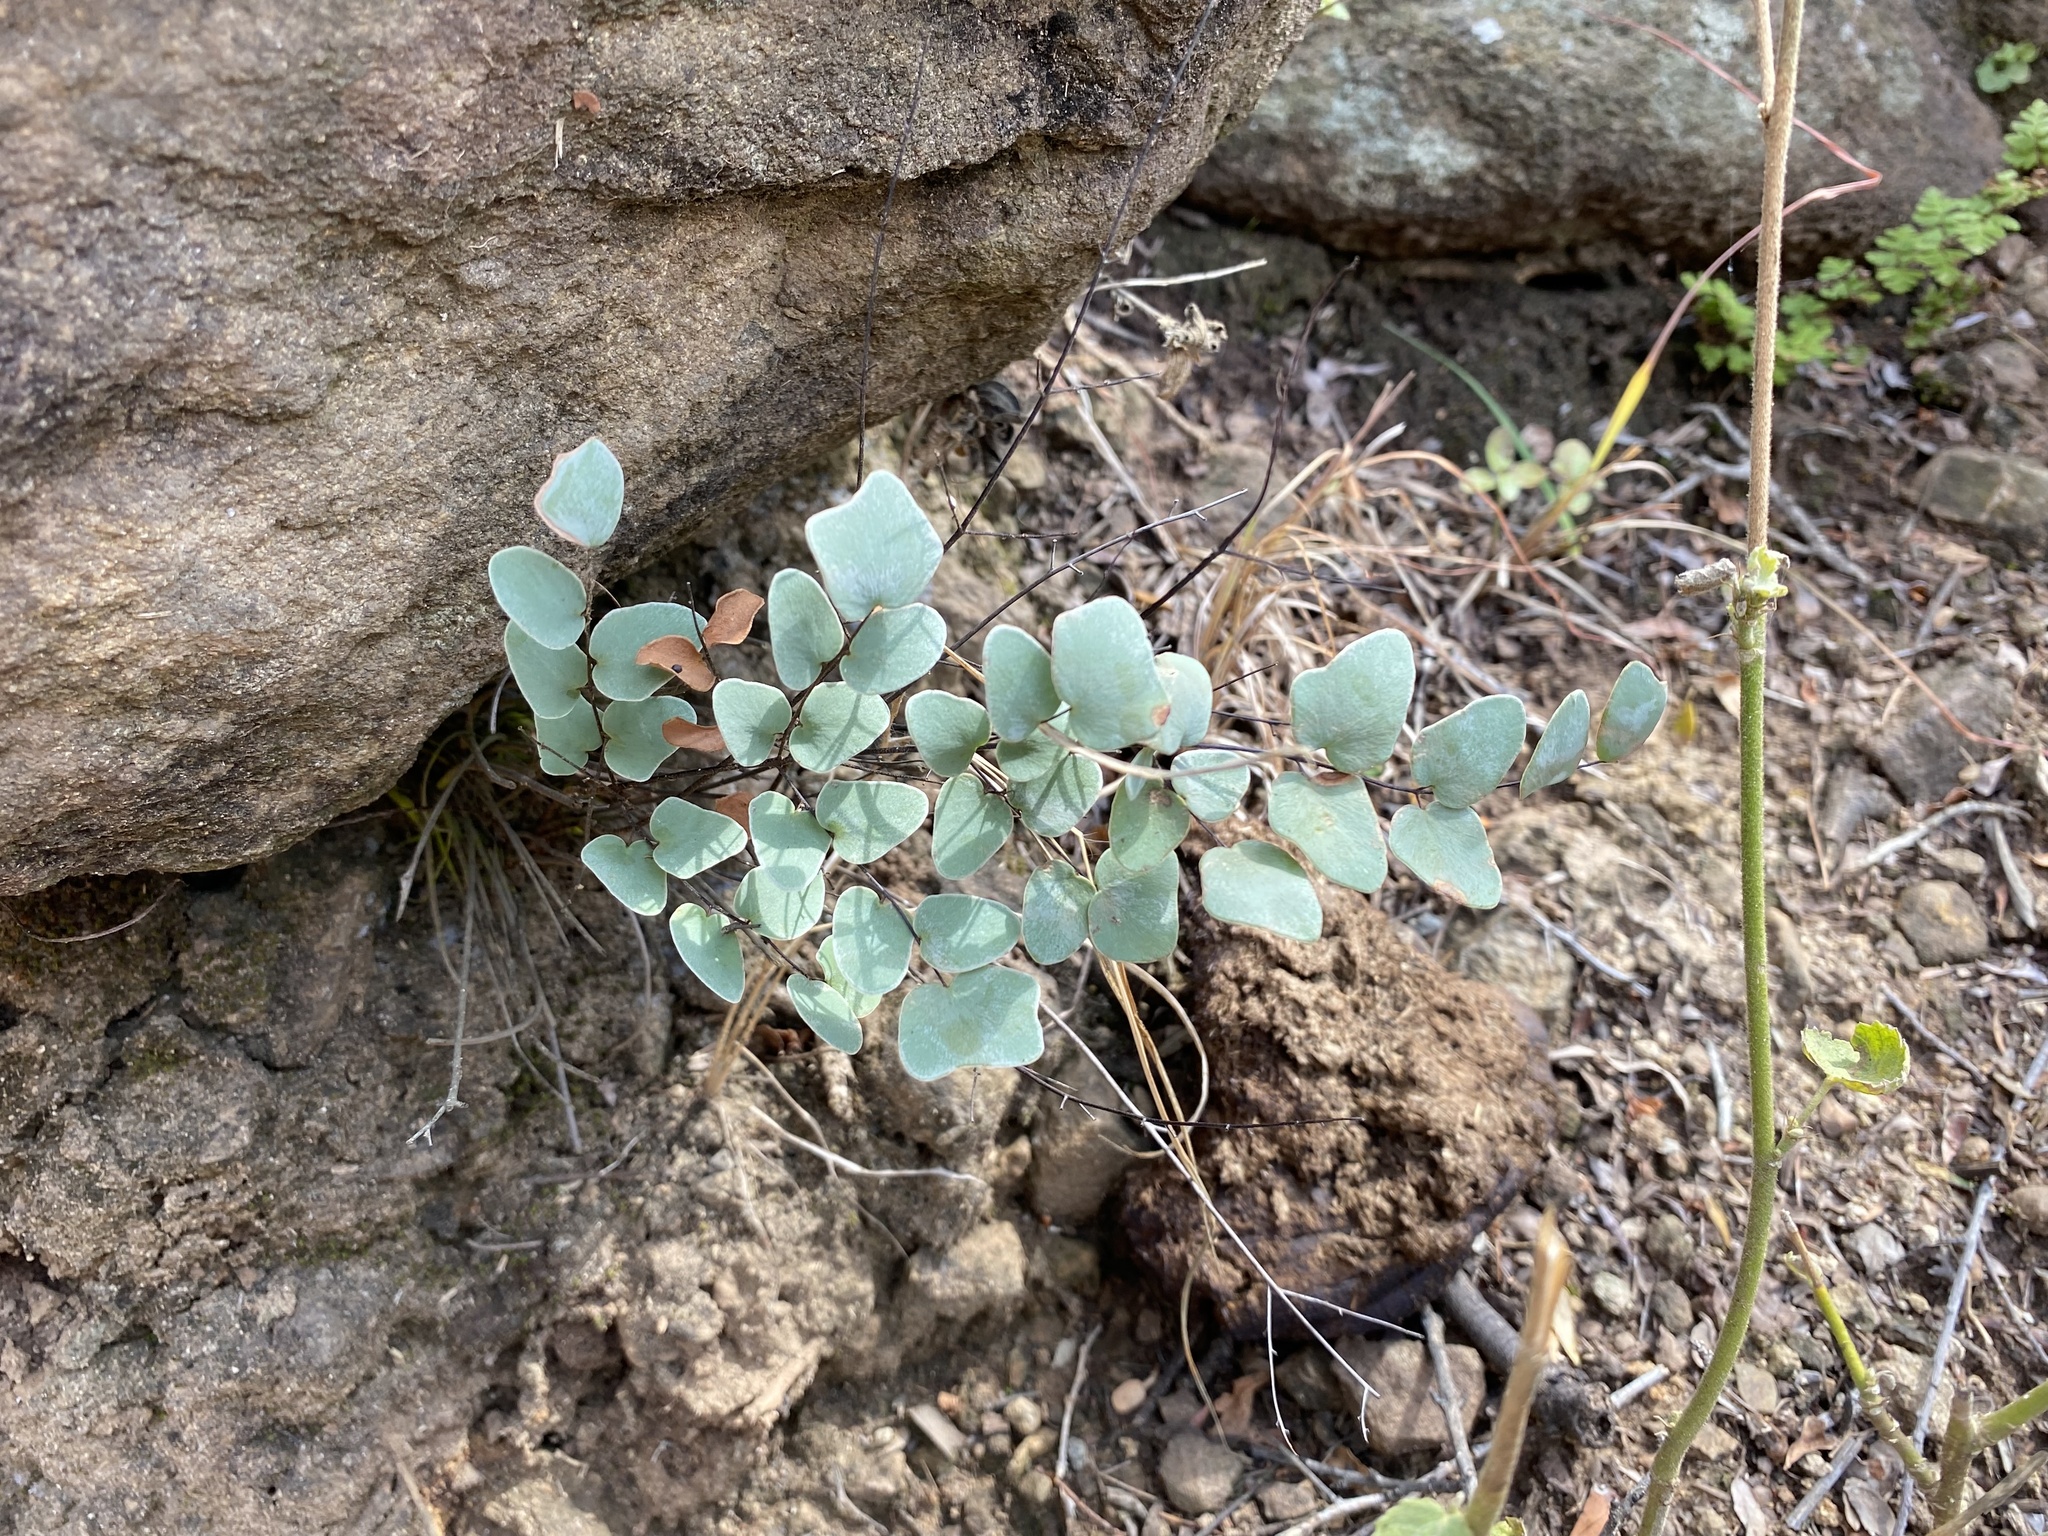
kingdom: Plantae
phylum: Tracheophyta
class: Polypodiopsida
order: Polypodiales
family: Pteridaceae
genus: Pellaea
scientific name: Pellaea calomelanos
